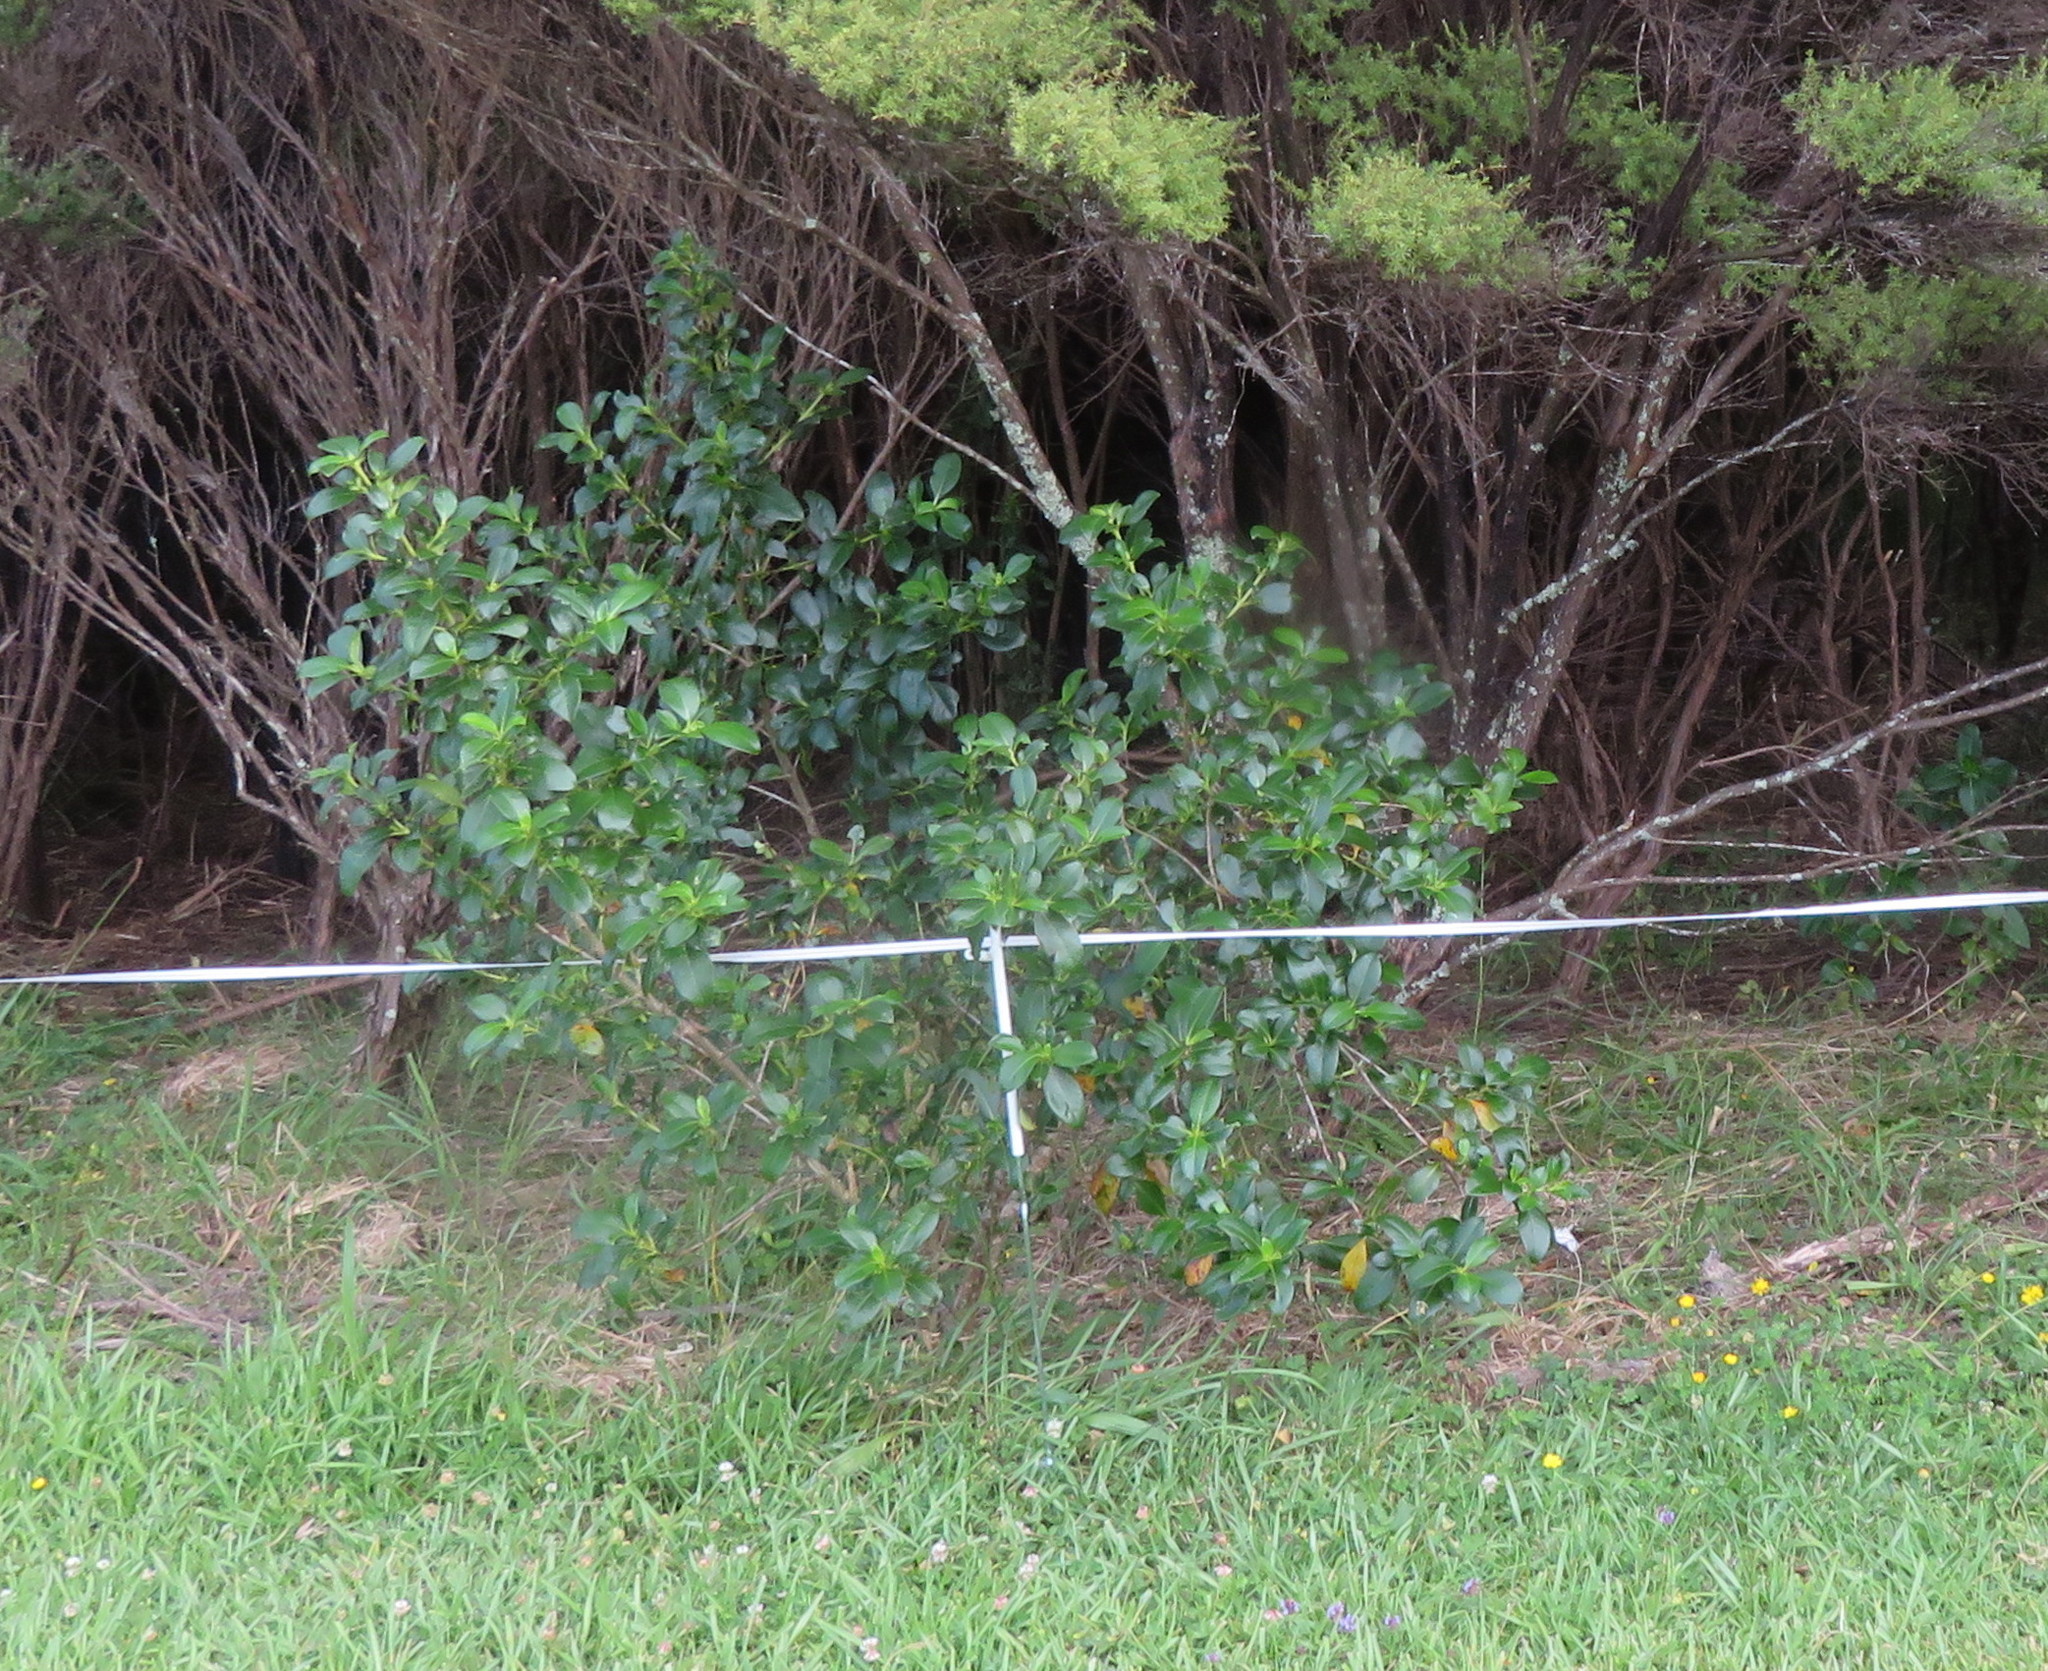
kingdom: Plantae
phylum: Tracheophyta
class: Magnoliopsida
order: Gentianales
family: Rubiaceae
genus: Coprosma
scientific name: Coprosma robusta
